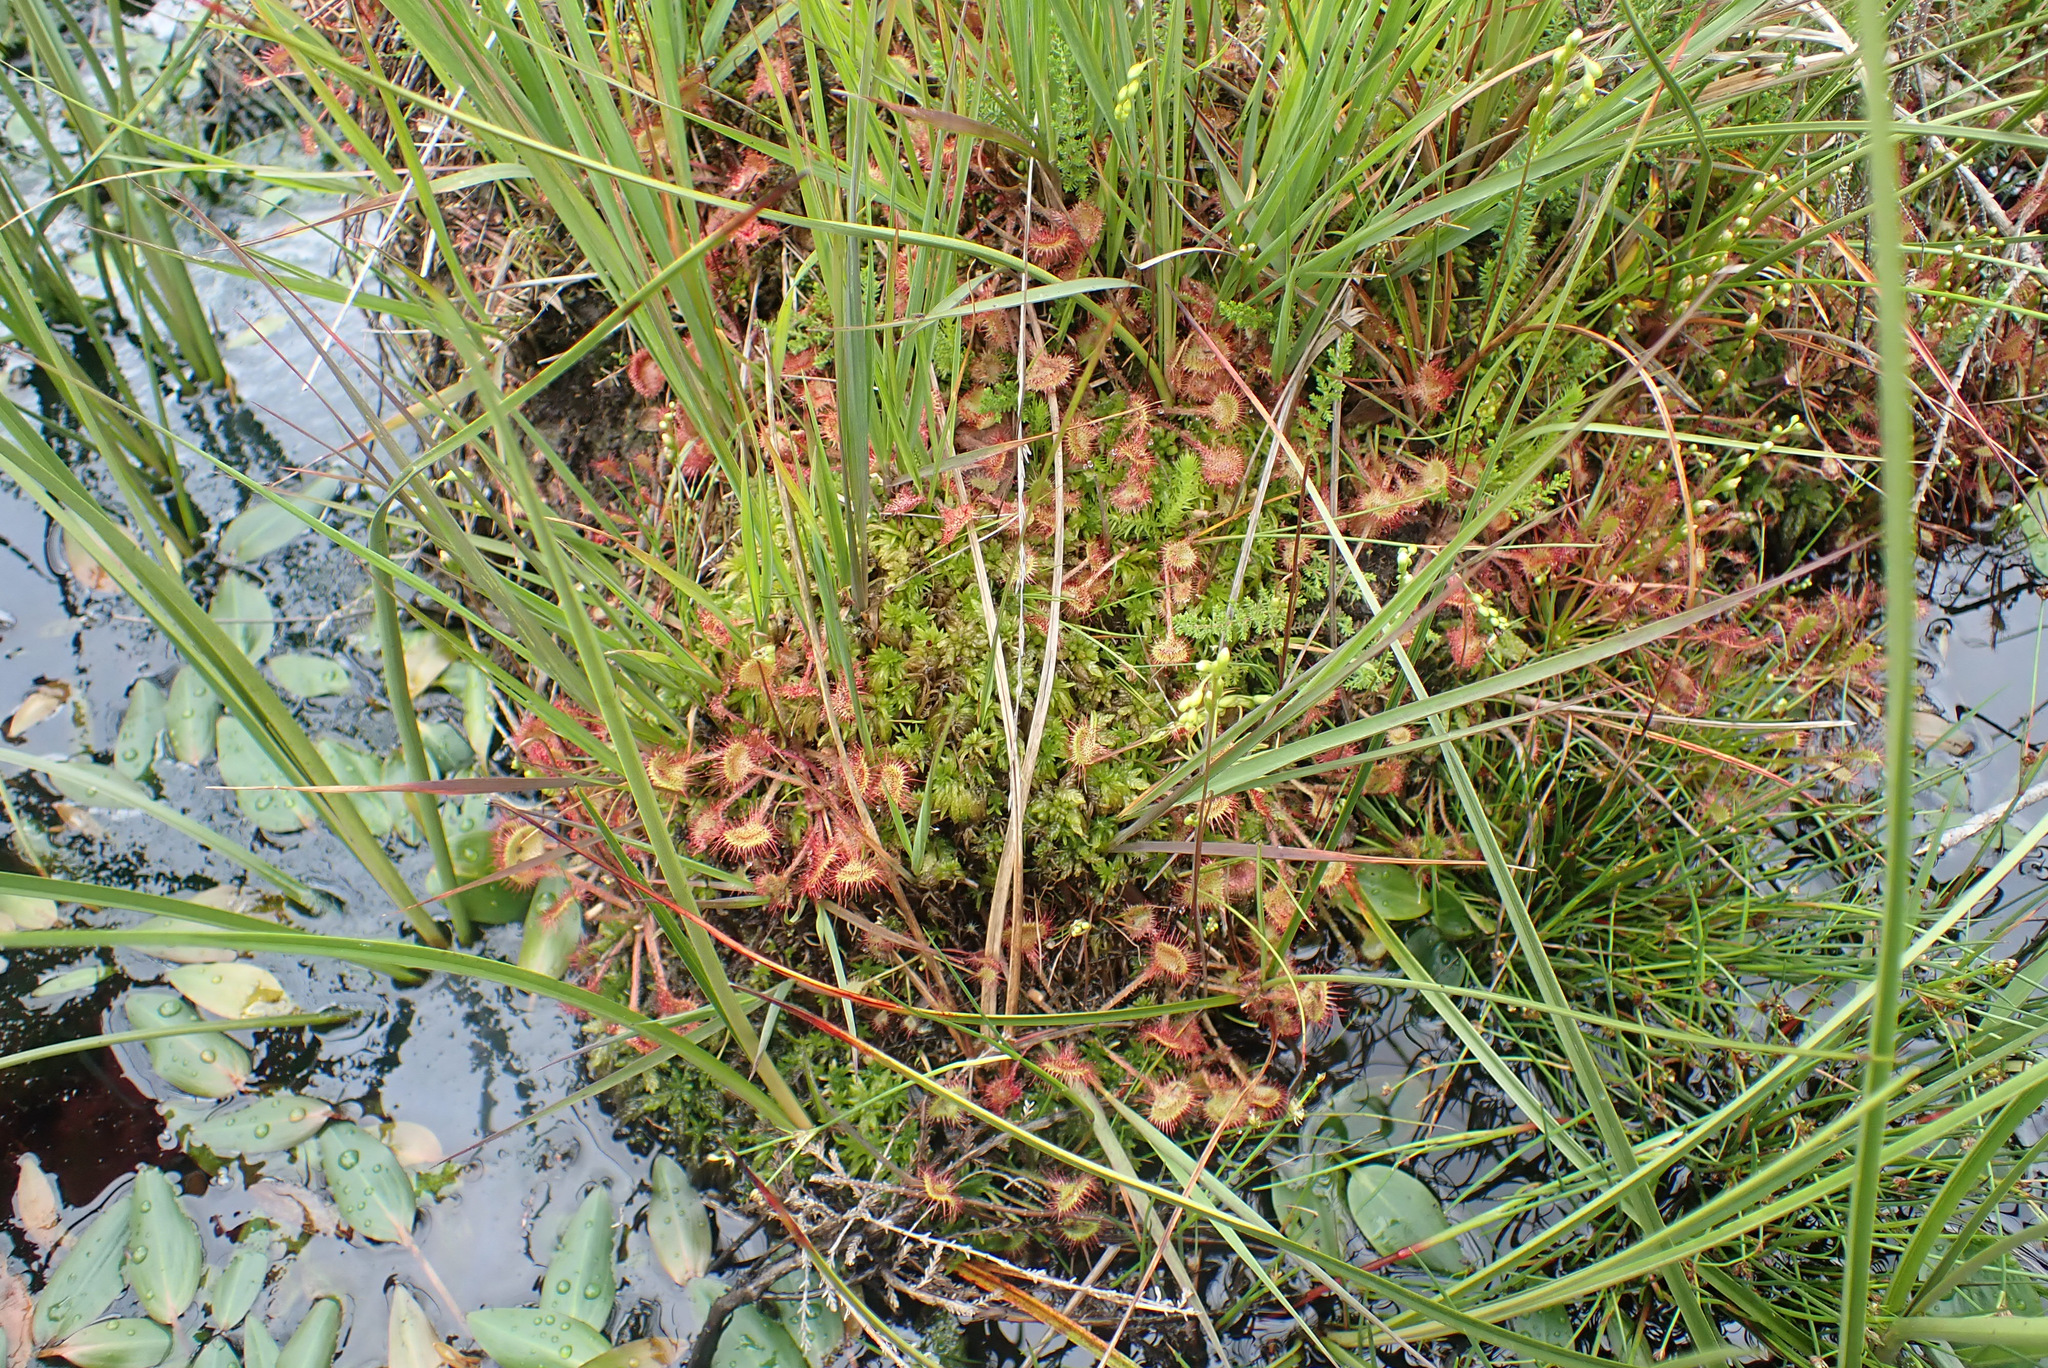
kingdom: Plantae
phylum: Tracheophyta
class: Magnoliopsida
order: Caryophyllales
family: Droseraceae
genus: Drosera
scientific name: Drosera rotundifolia
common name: Round-leaved sundew
